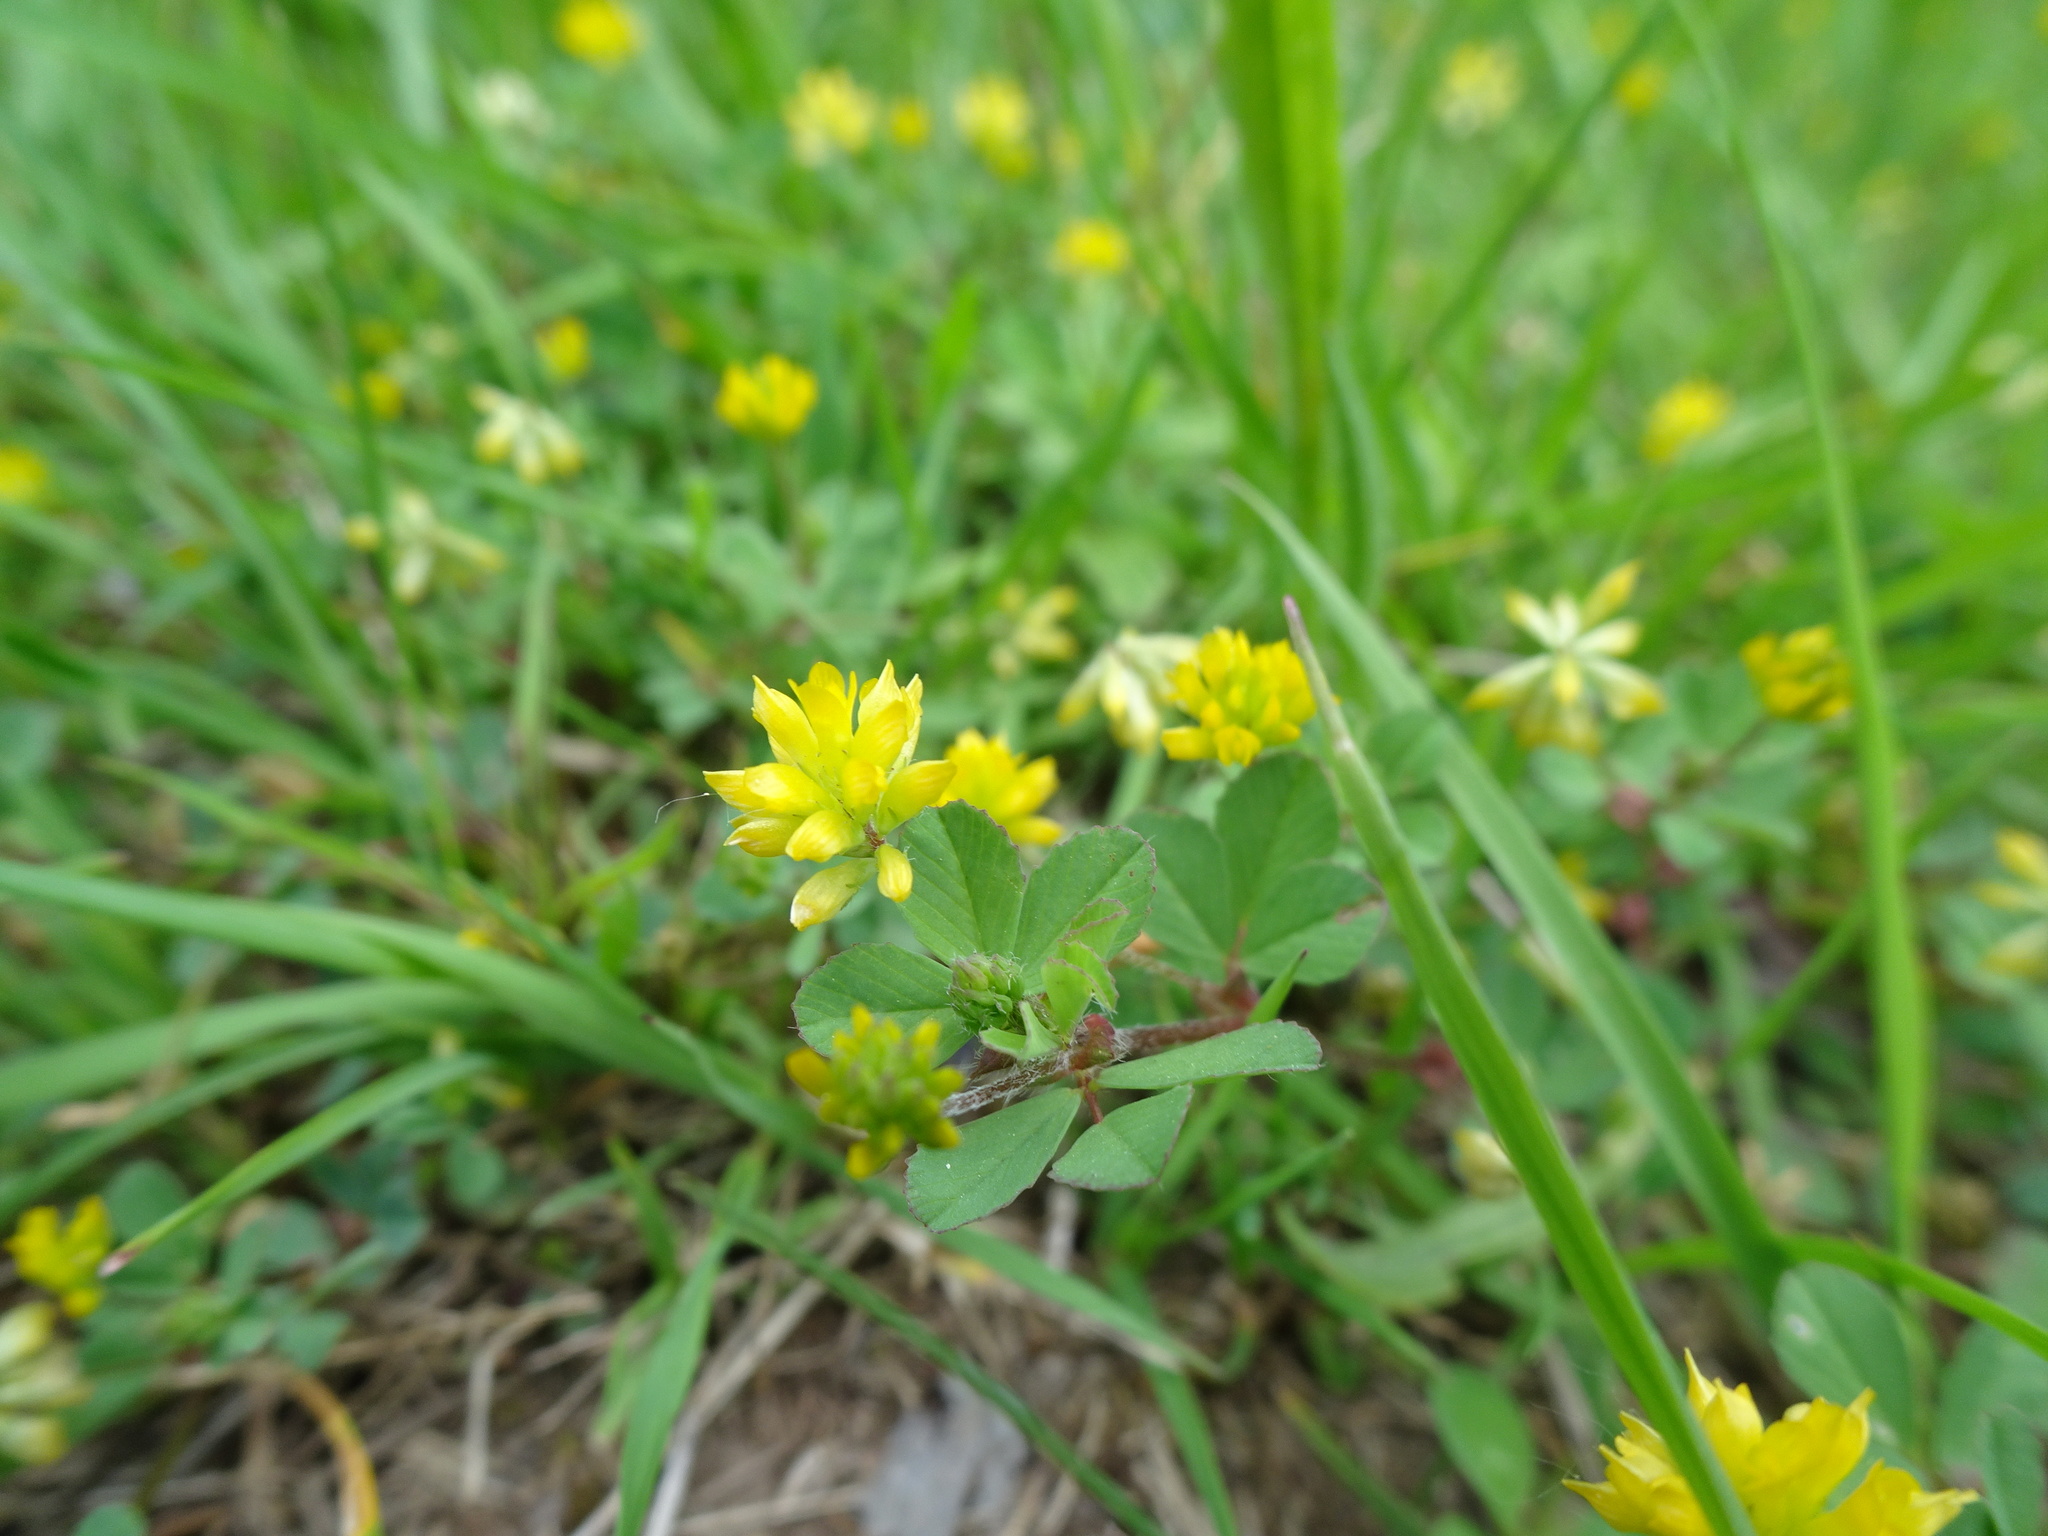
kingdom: Plantae
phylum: Tracheophyta
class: Magnoliopsida
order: Fabales
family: Fabaceae
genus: Trifolium
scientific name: Trifolium dubium
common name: Suckling clover
